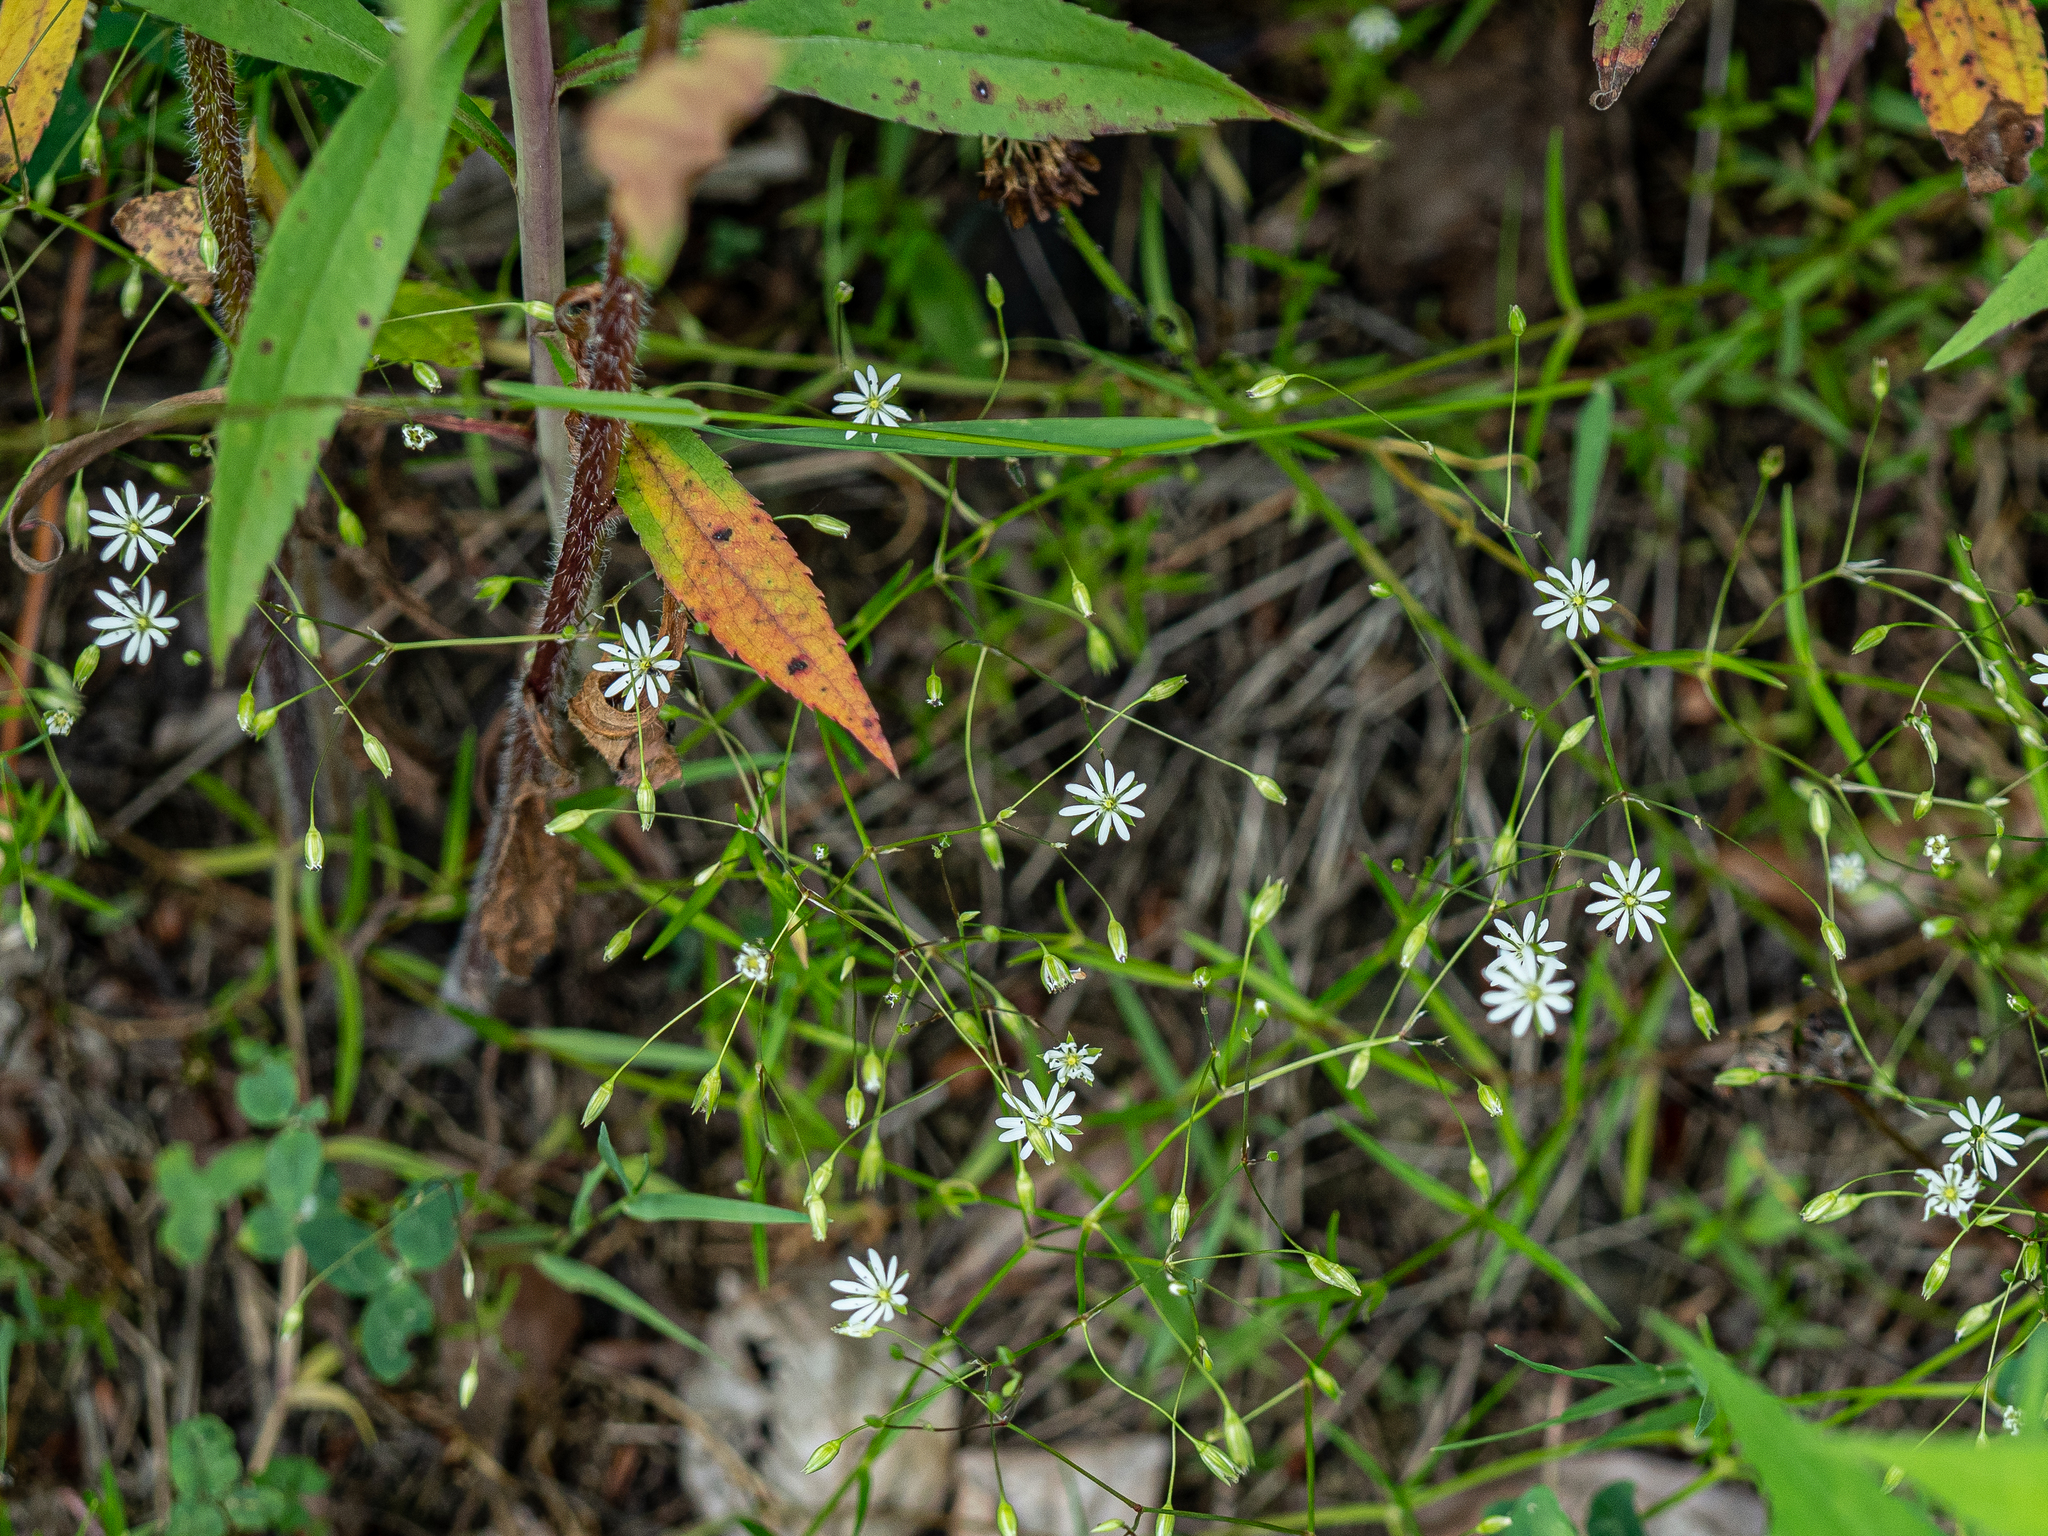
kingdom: Plantae
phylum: Tracheophyta
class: Magnoliopsida
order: Caryophyllales
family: Caryophyllaceae
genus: Stellaria
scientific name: Stellaria graminea
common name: Grass-like starwort
